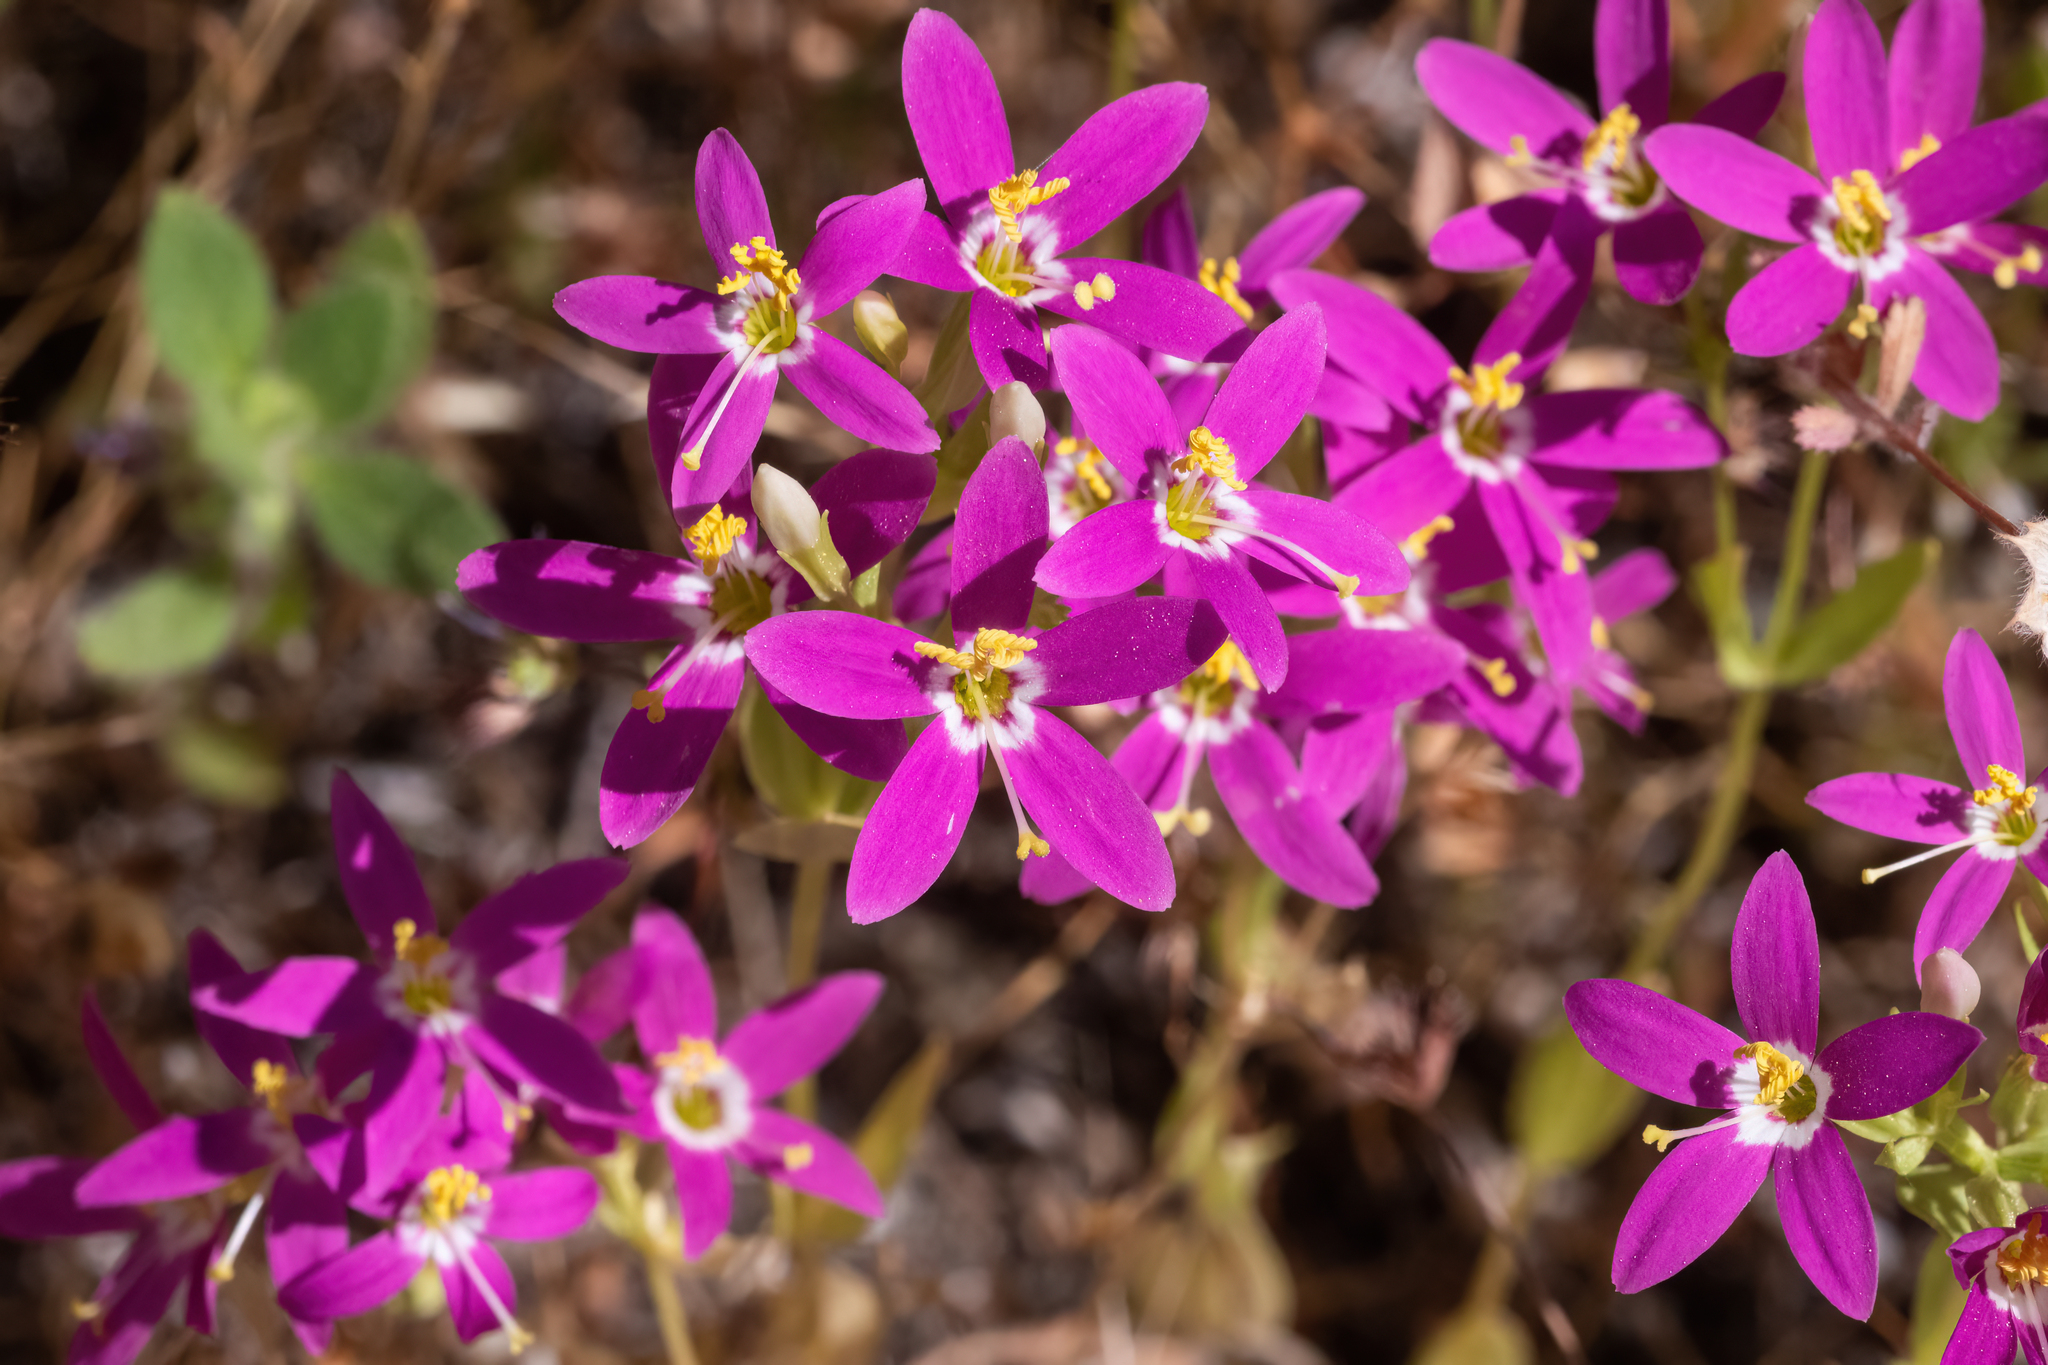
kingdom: Plantae
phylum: Tracheophyta
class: Magnoliopsida
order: Gentianales
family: Gentianaceae
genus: Zeltnera
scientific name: Zeltnera venusta
